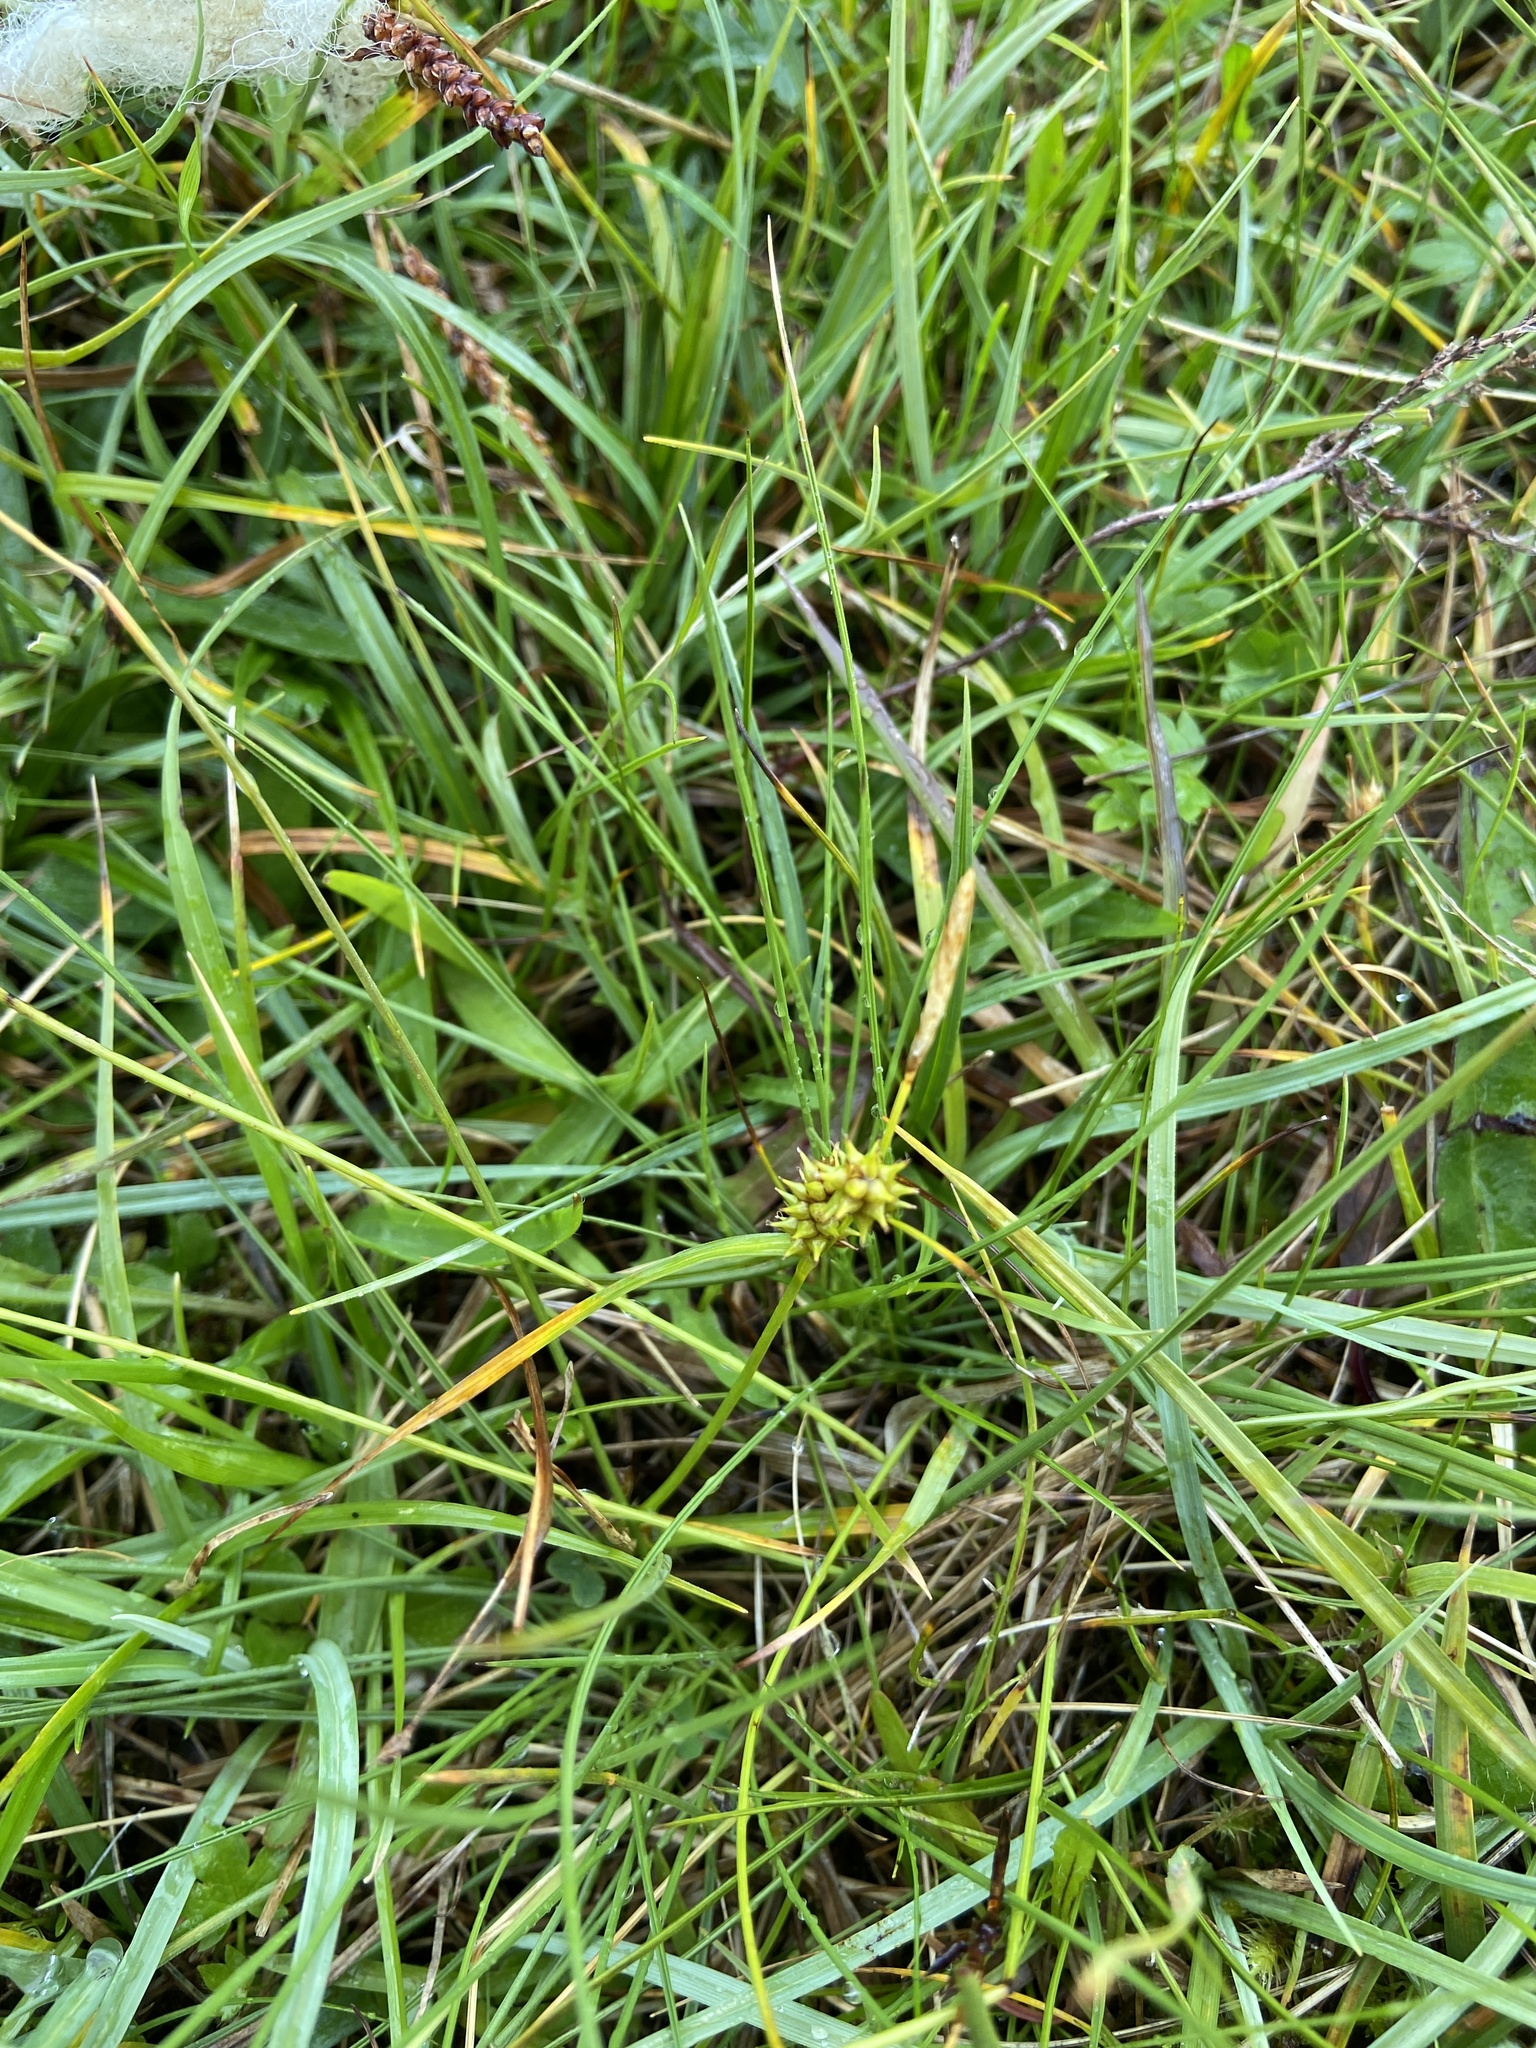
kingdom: Plantae
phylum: Tracheophyta
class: Liliopsida
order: Poales
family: Cyperaceae
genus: Carex
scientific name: Carex demissa
